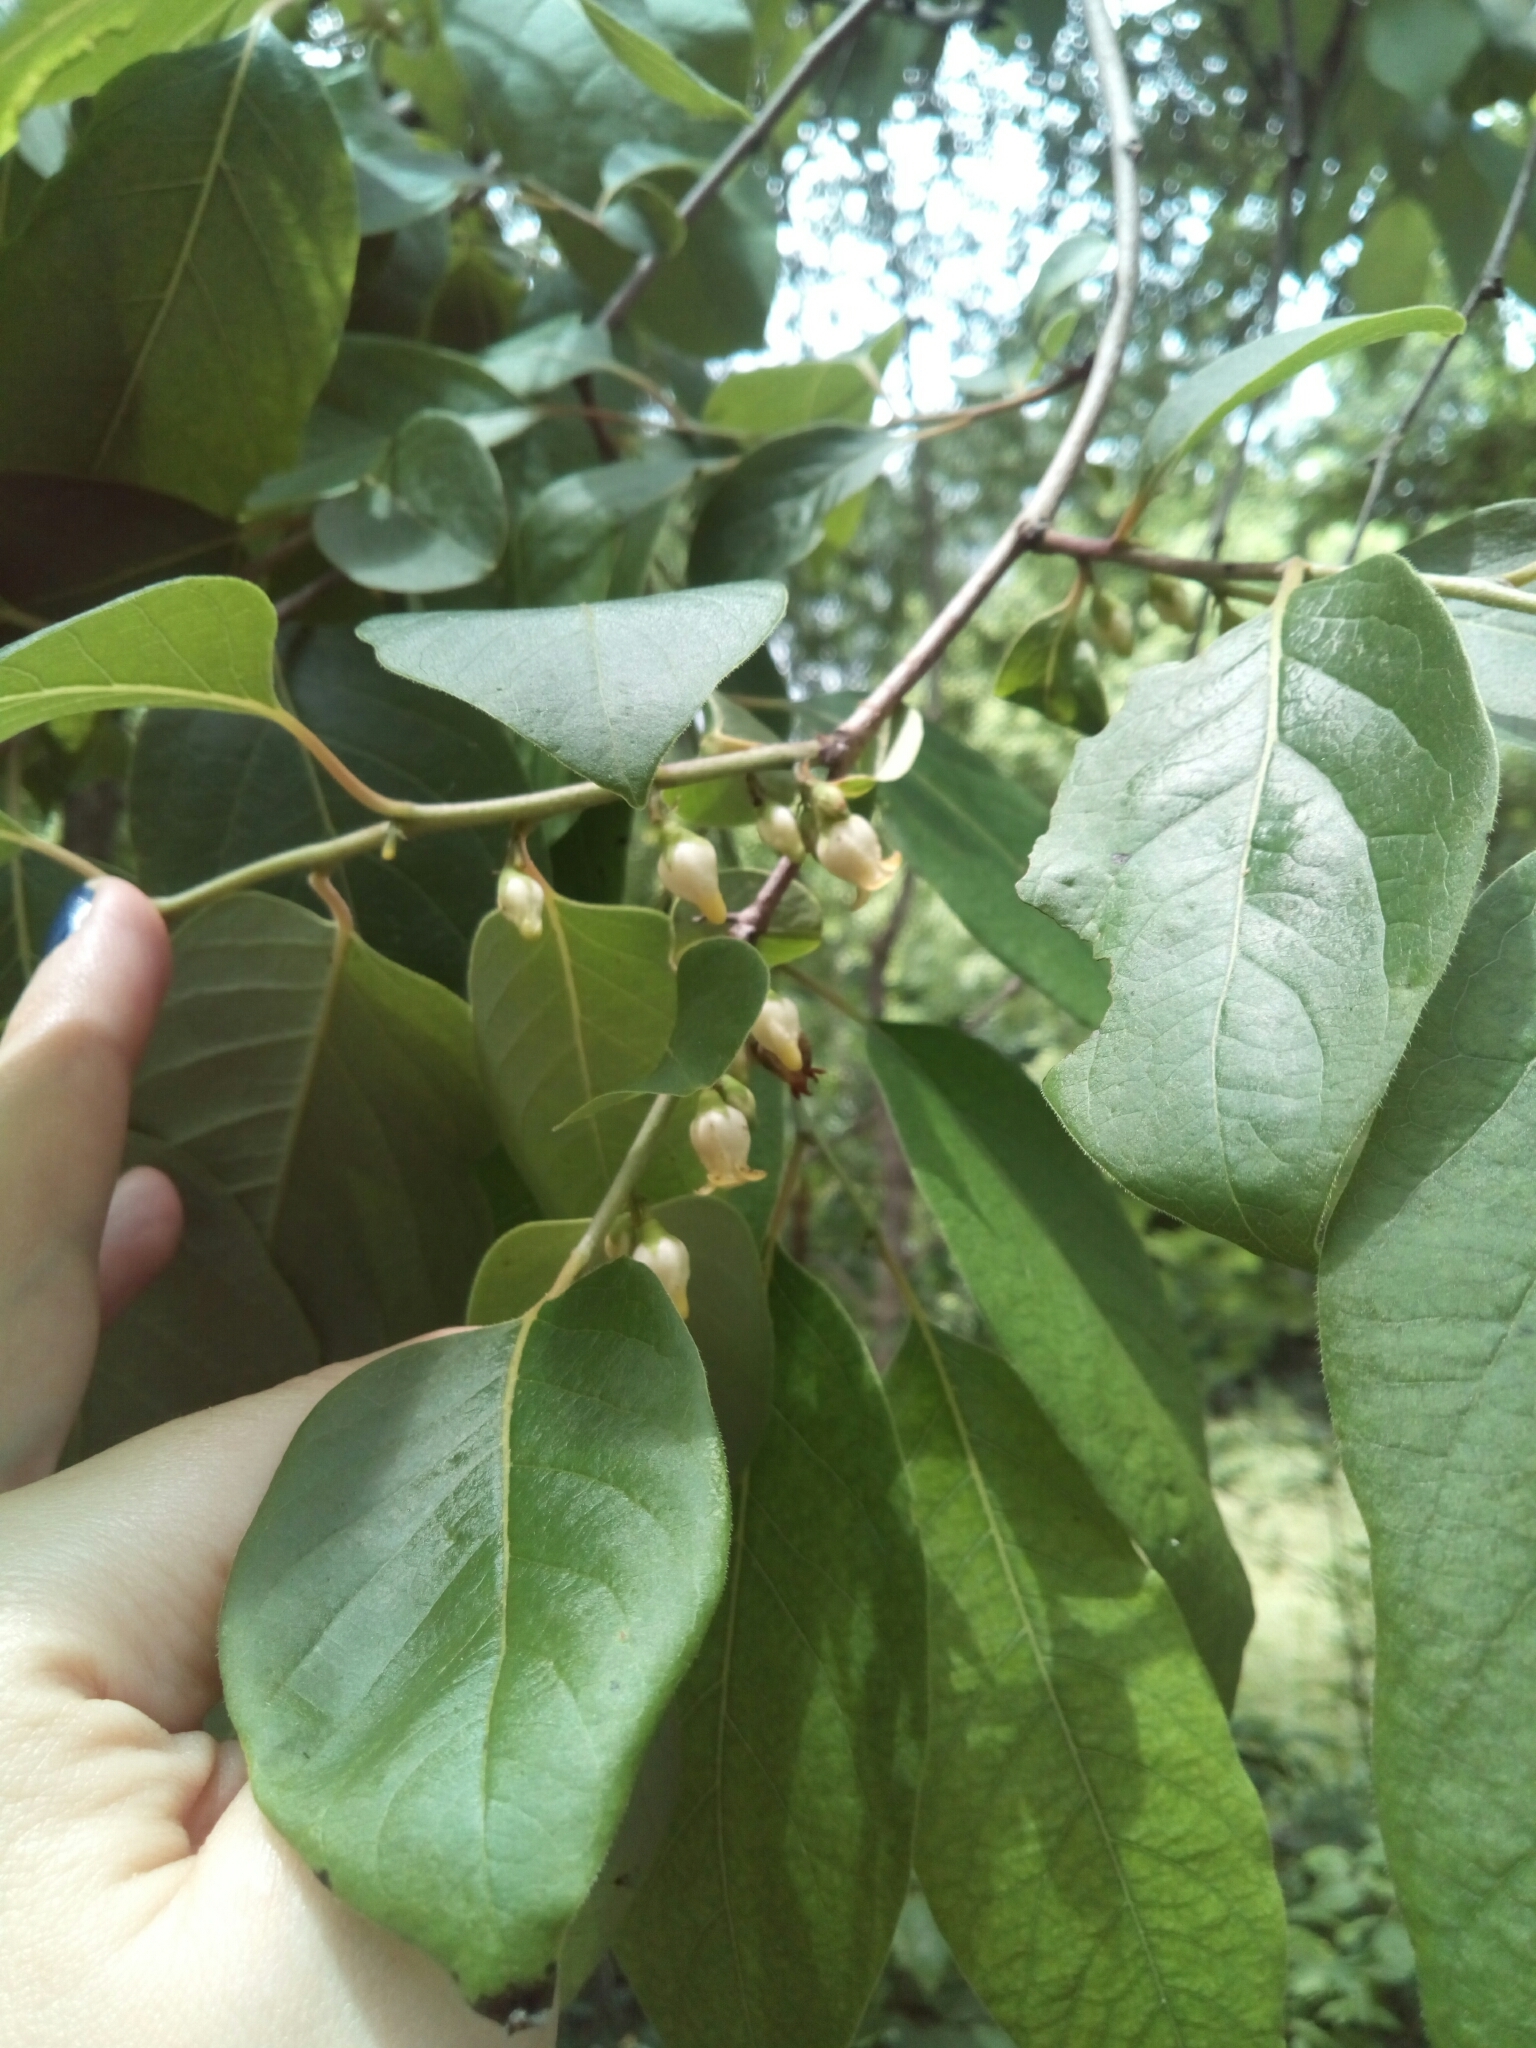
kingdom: Plantae
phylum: Tracheophyta
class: Magnoliopsida
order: Ericales
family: Ebenaceae
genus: Diospyros
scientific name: Diospyros virginiana
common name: Persimmon
